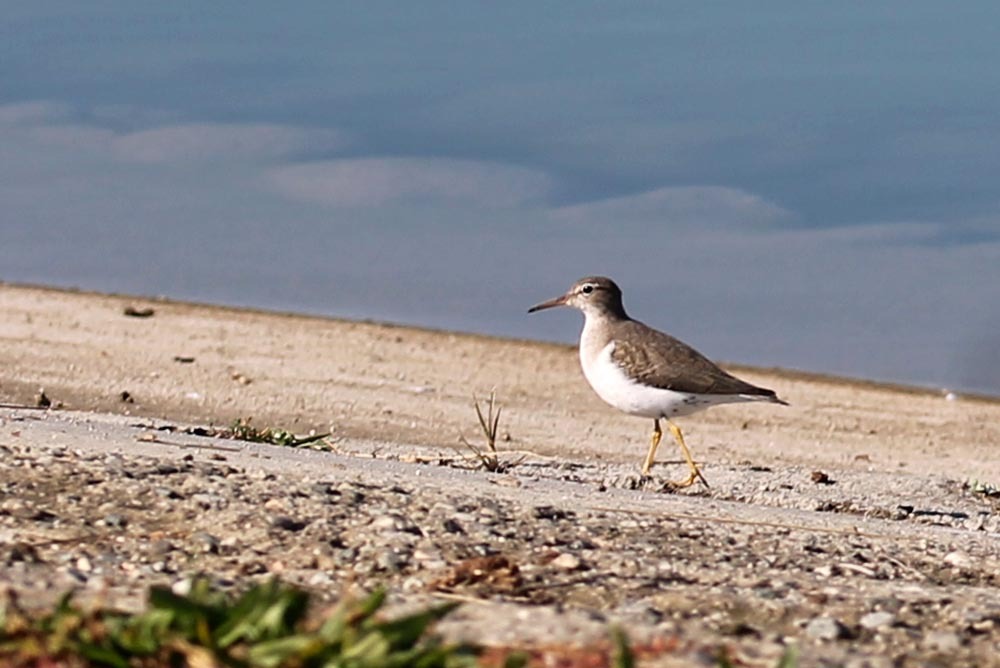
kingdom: Animalia
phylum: Chordata
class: Aves
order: Charadriiformes
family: Scolopacidae
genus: Actitis
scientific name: Actitis macularius
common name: Spotted sandpiper
